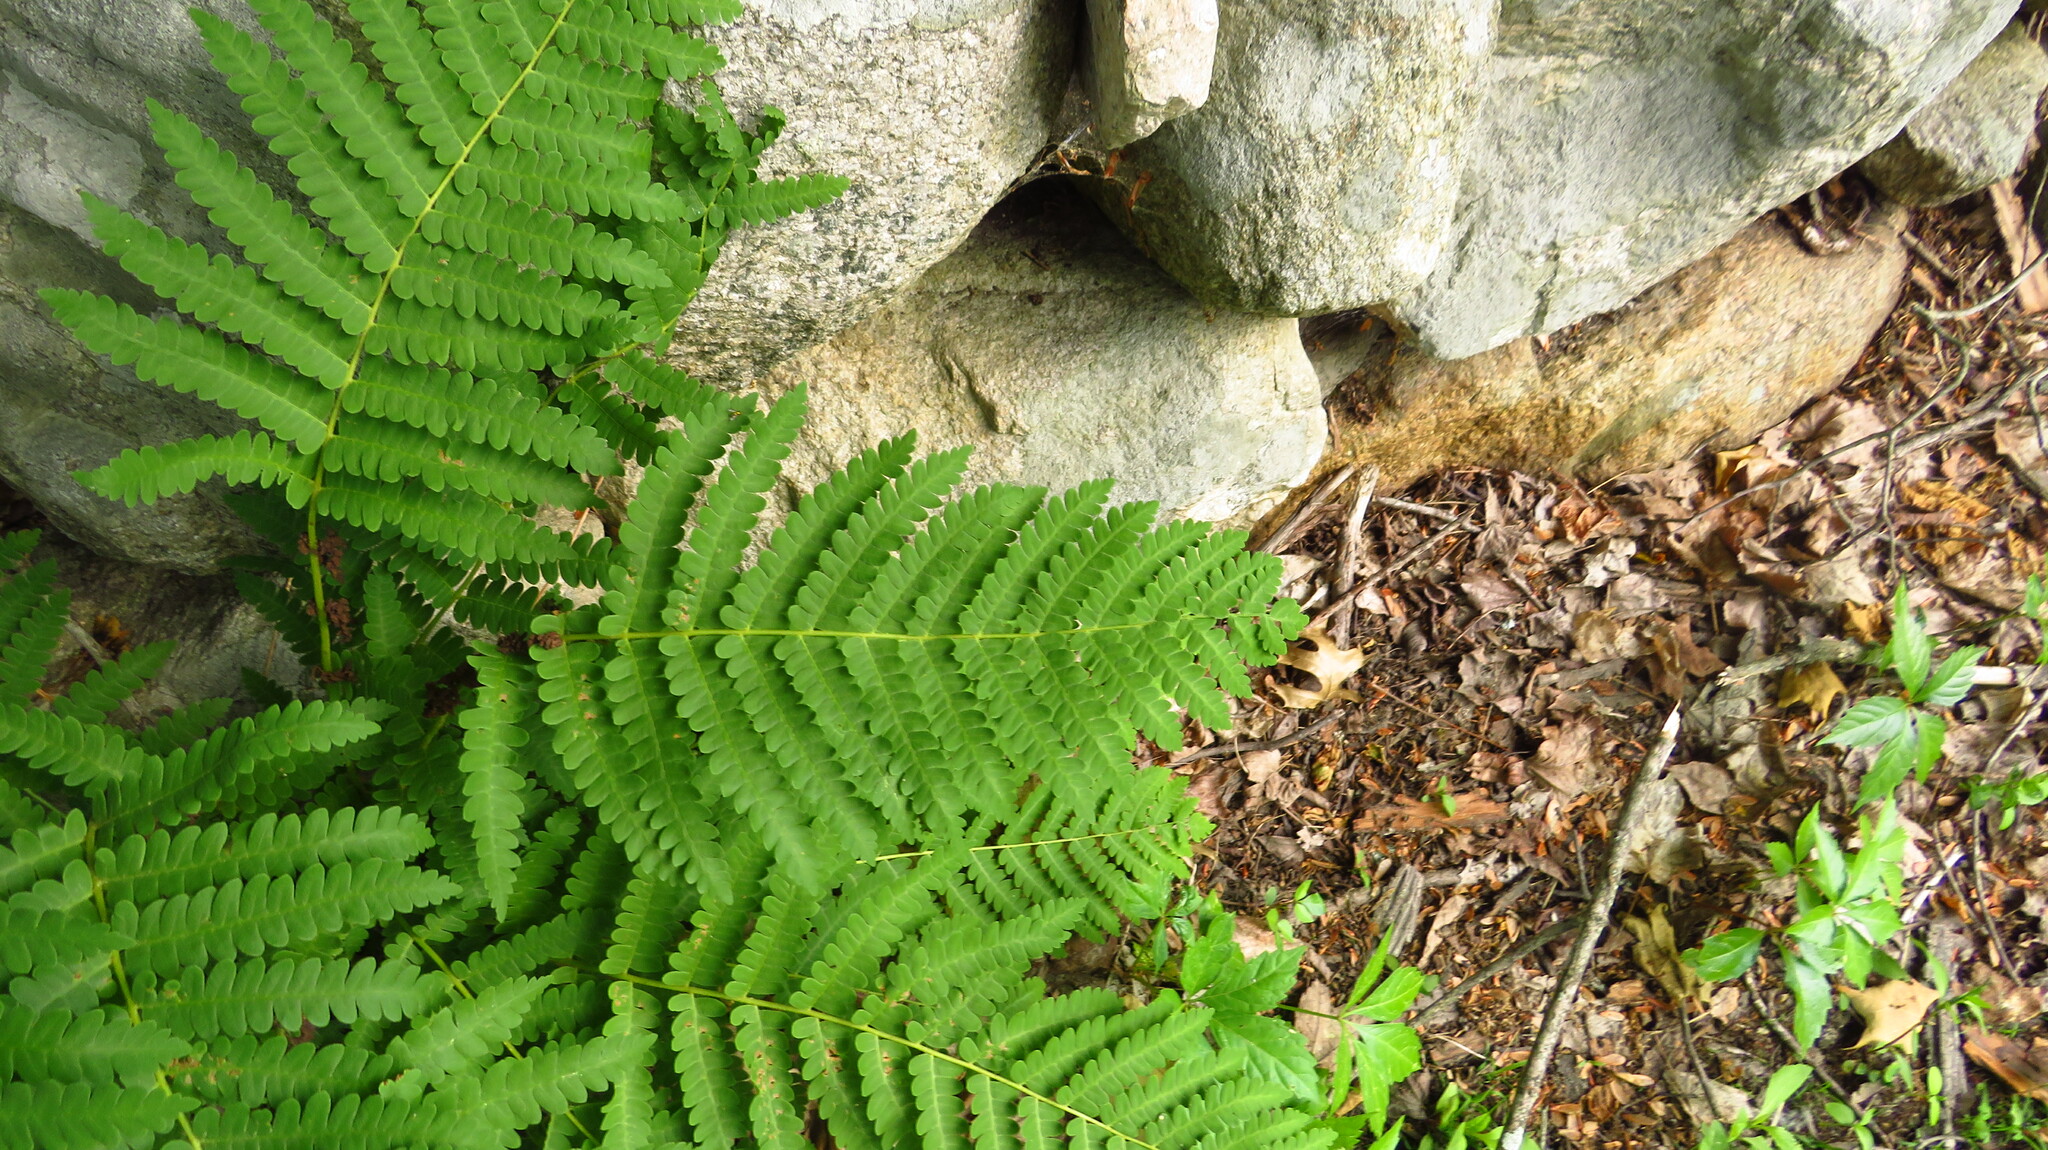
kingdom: Plantae
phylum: Tracheophyta
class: Polypodiopsida
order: Osmundales
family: Osmundaceae
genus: Claytosmunda
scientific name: Claytosmunda claytoniana
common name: Clayton's fern
